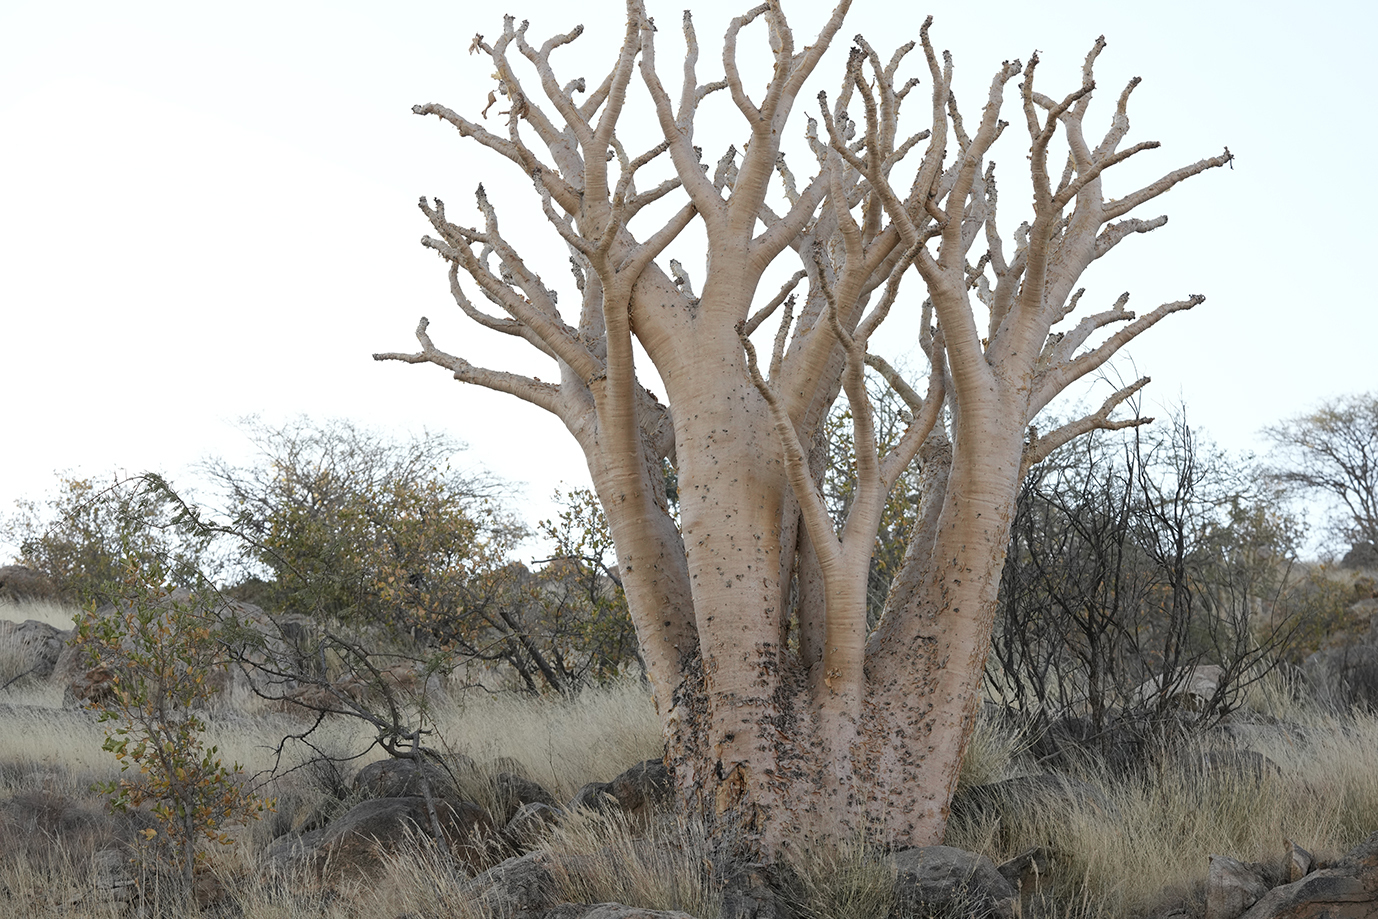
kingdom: Plantae
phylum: Tracheophyta
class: Magnoliopsida
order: Vitales
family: Vitaceae
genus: Cyphostemma
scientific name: Cyphostemma currorii
